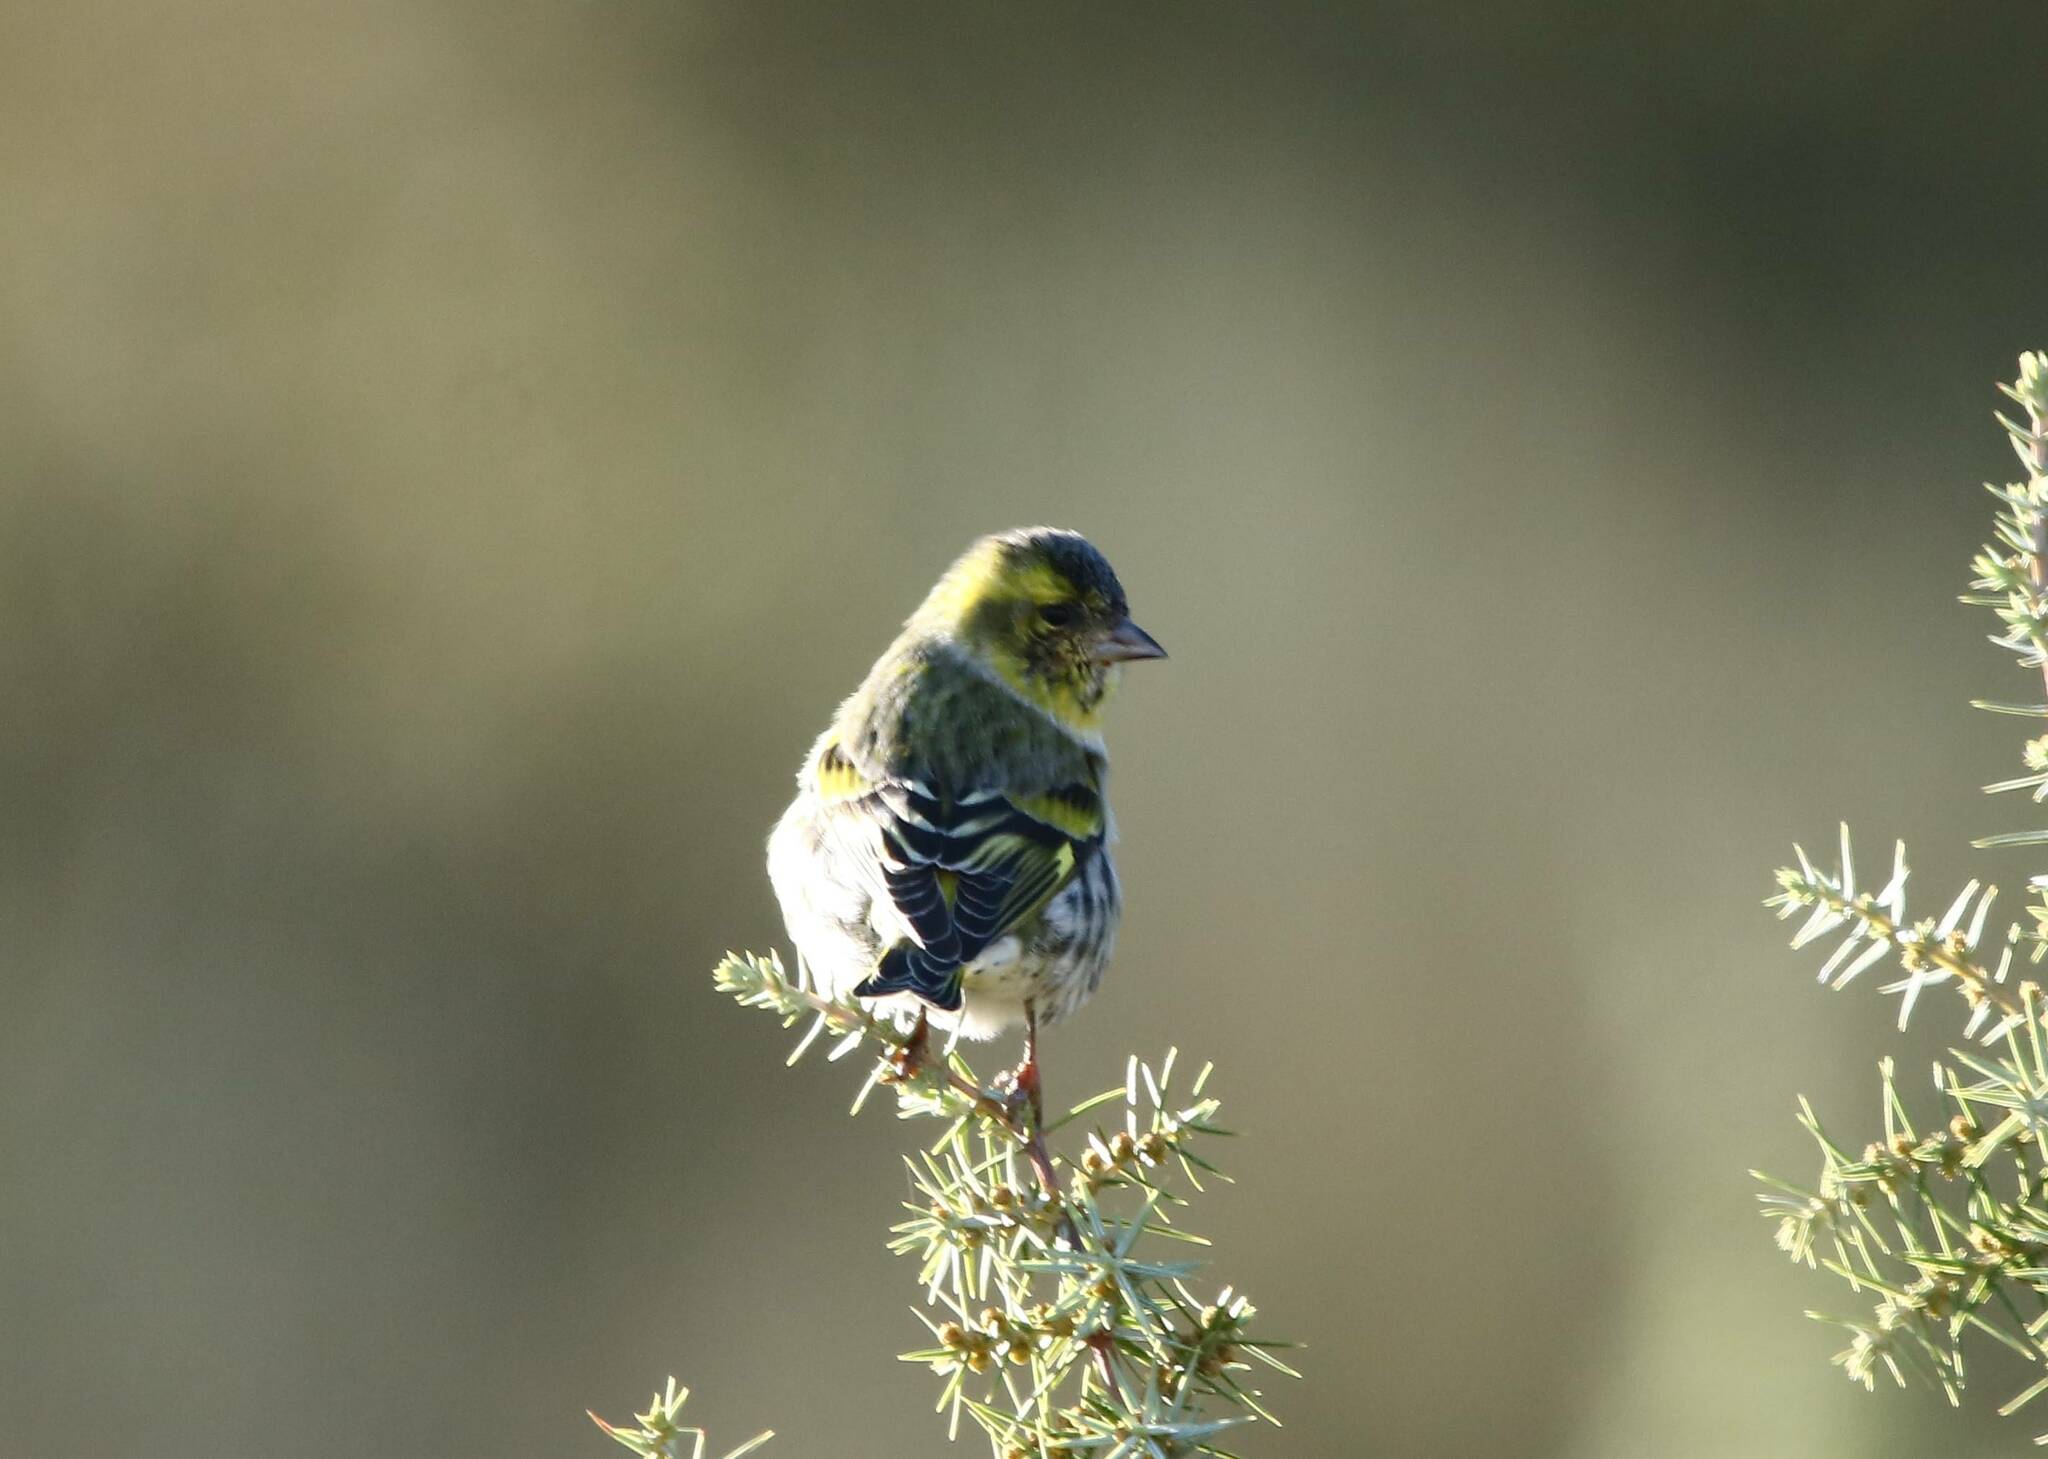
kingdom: Animalia
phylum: Chordata
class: Aves
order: Passeriformes
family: Fringillidae
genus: Spinus
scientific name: Spinus spinus
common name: Eurasian siskin
